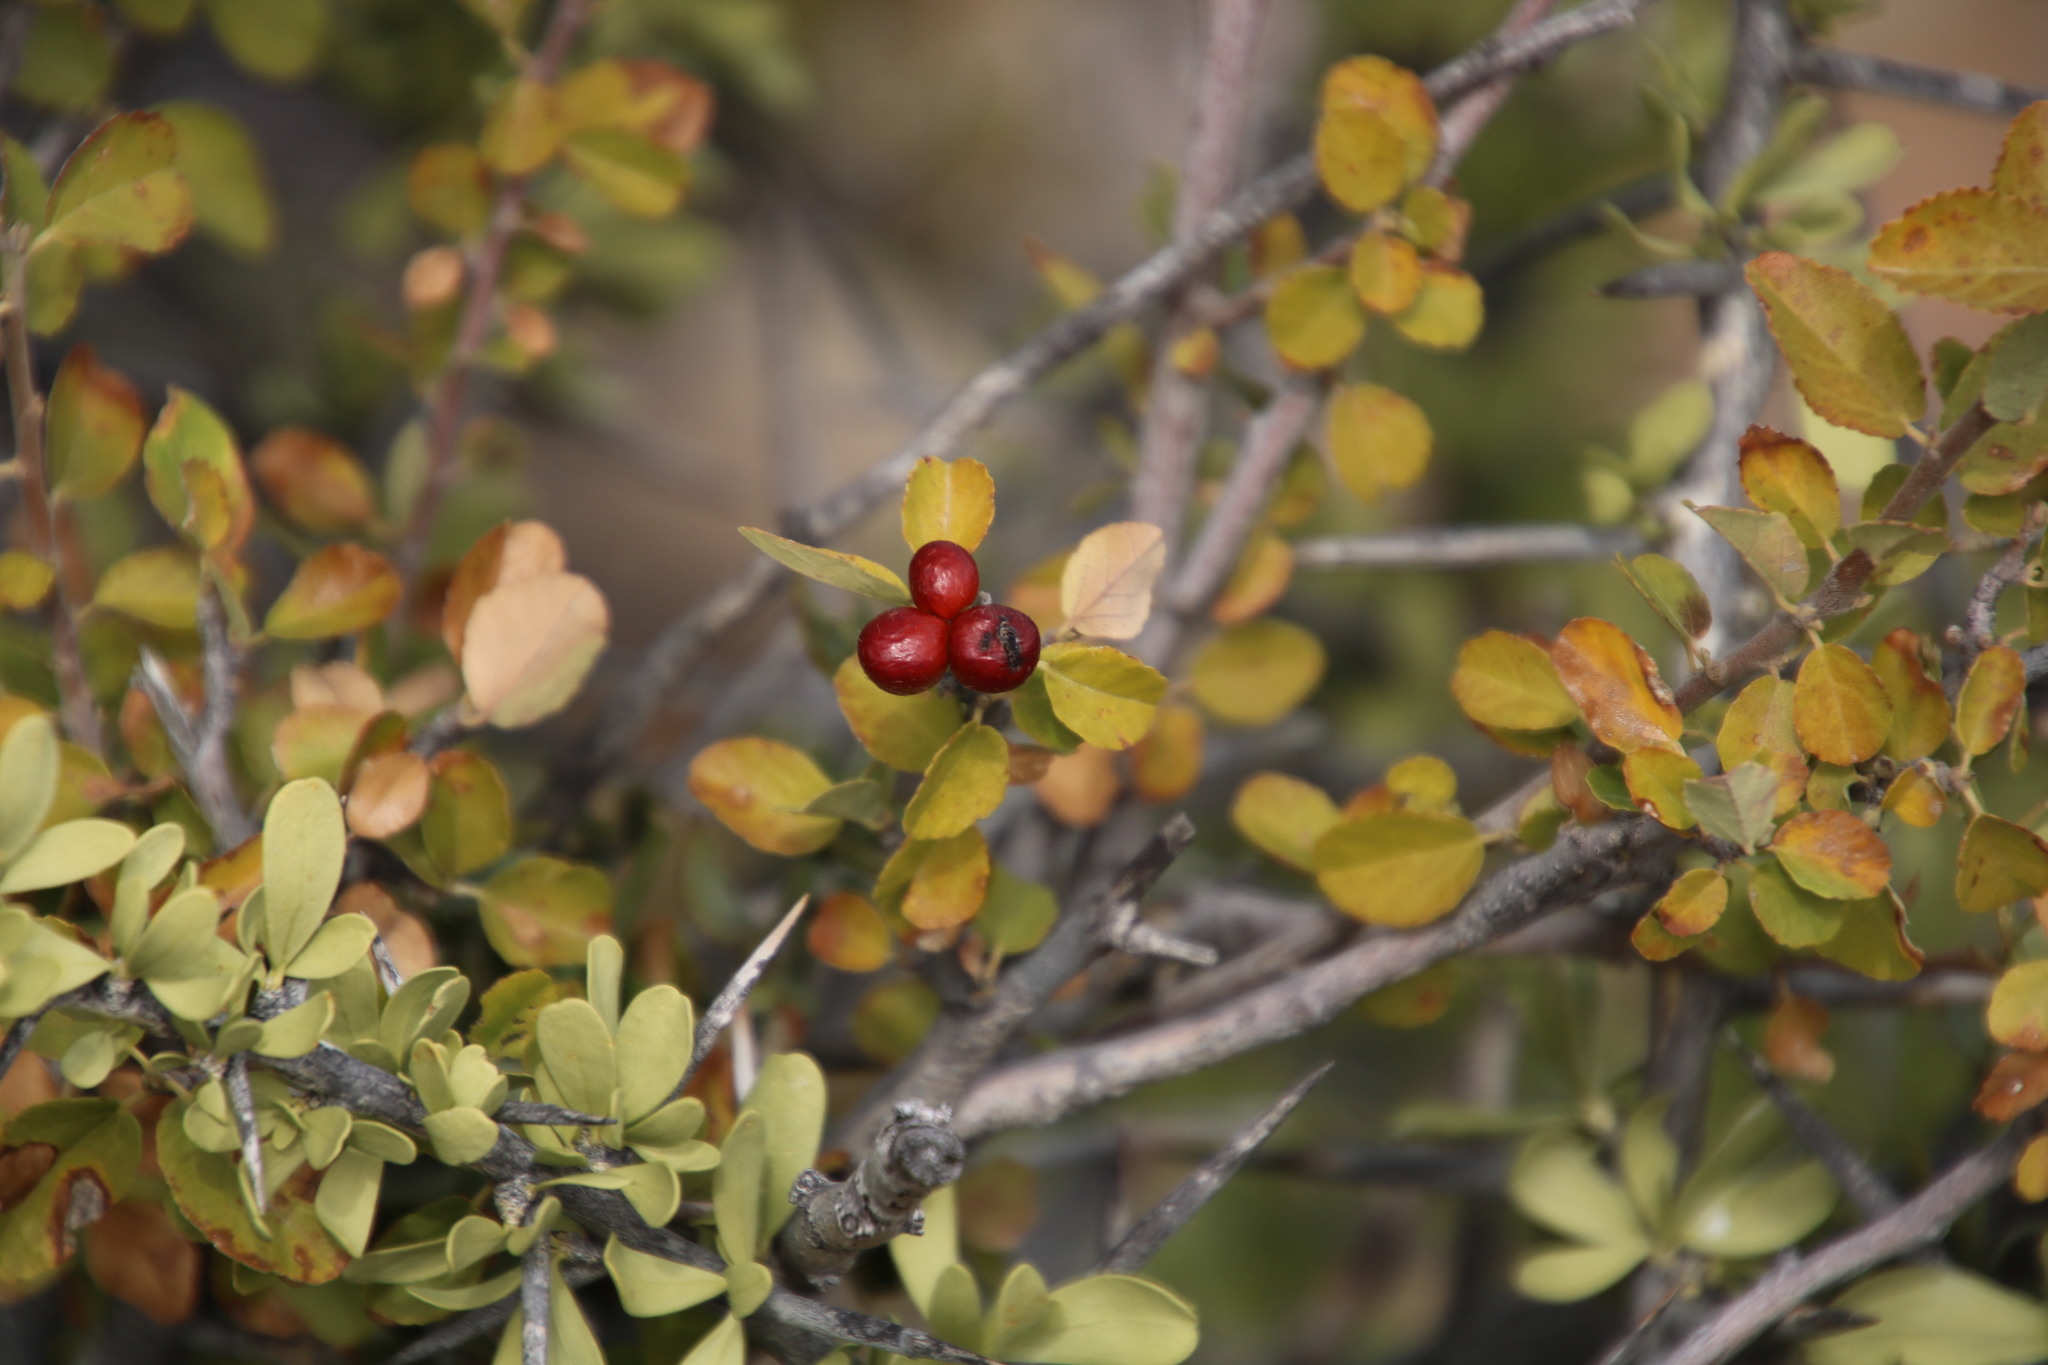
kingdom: Plantae
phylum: Tracheophyta
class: Magnoliopsida
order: Malvales
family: Malvaceae
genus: Grewia
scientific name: Grewia robusta
